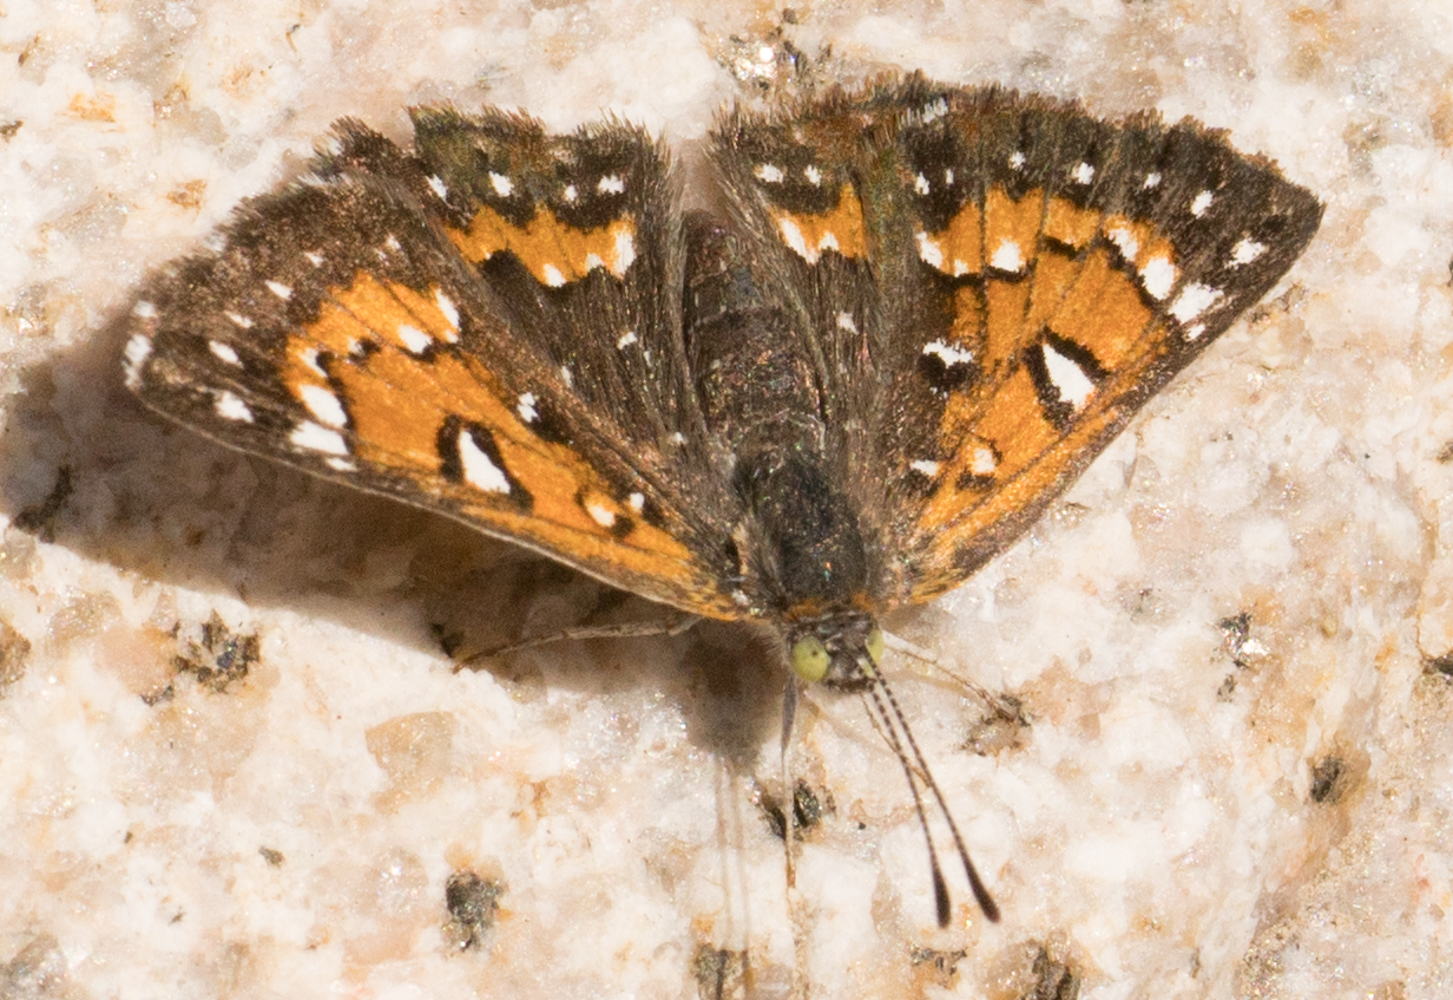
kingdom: Animalia
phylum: Arthropoda
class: Insecta
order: Lepidoptera
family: Riodinidae
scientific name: Riodinidae
